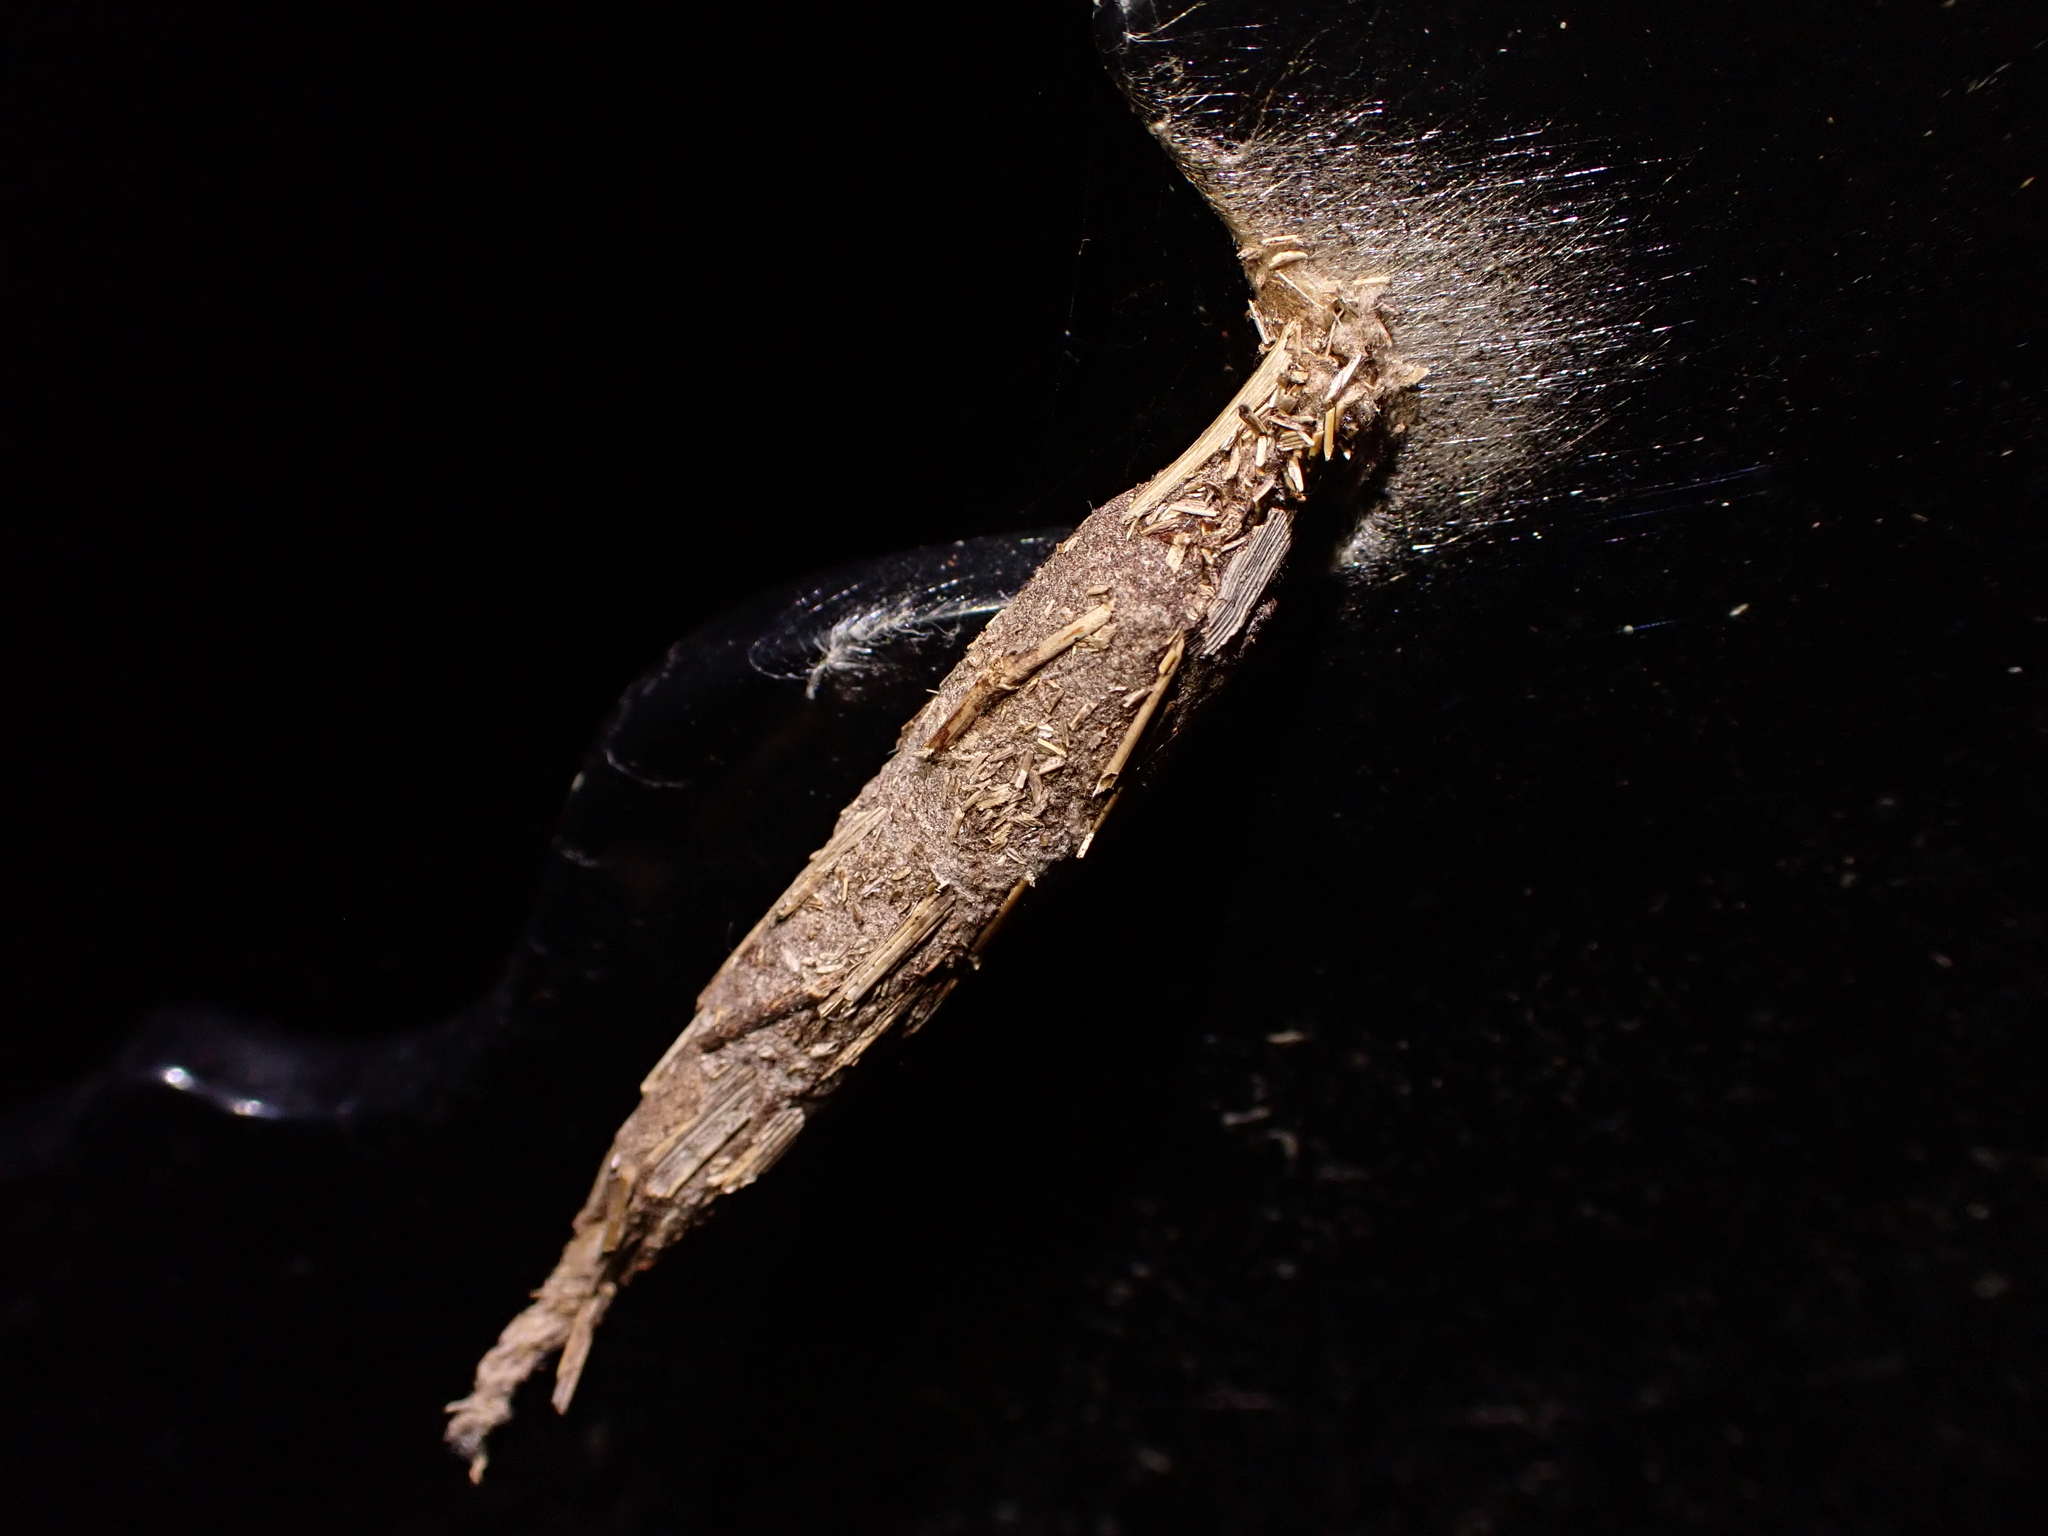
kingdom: Animalia
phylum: Arthropoda
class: Insecta
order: Lepidoptera
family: Psychidae
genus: Liothula
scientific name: Liothula omnivora
